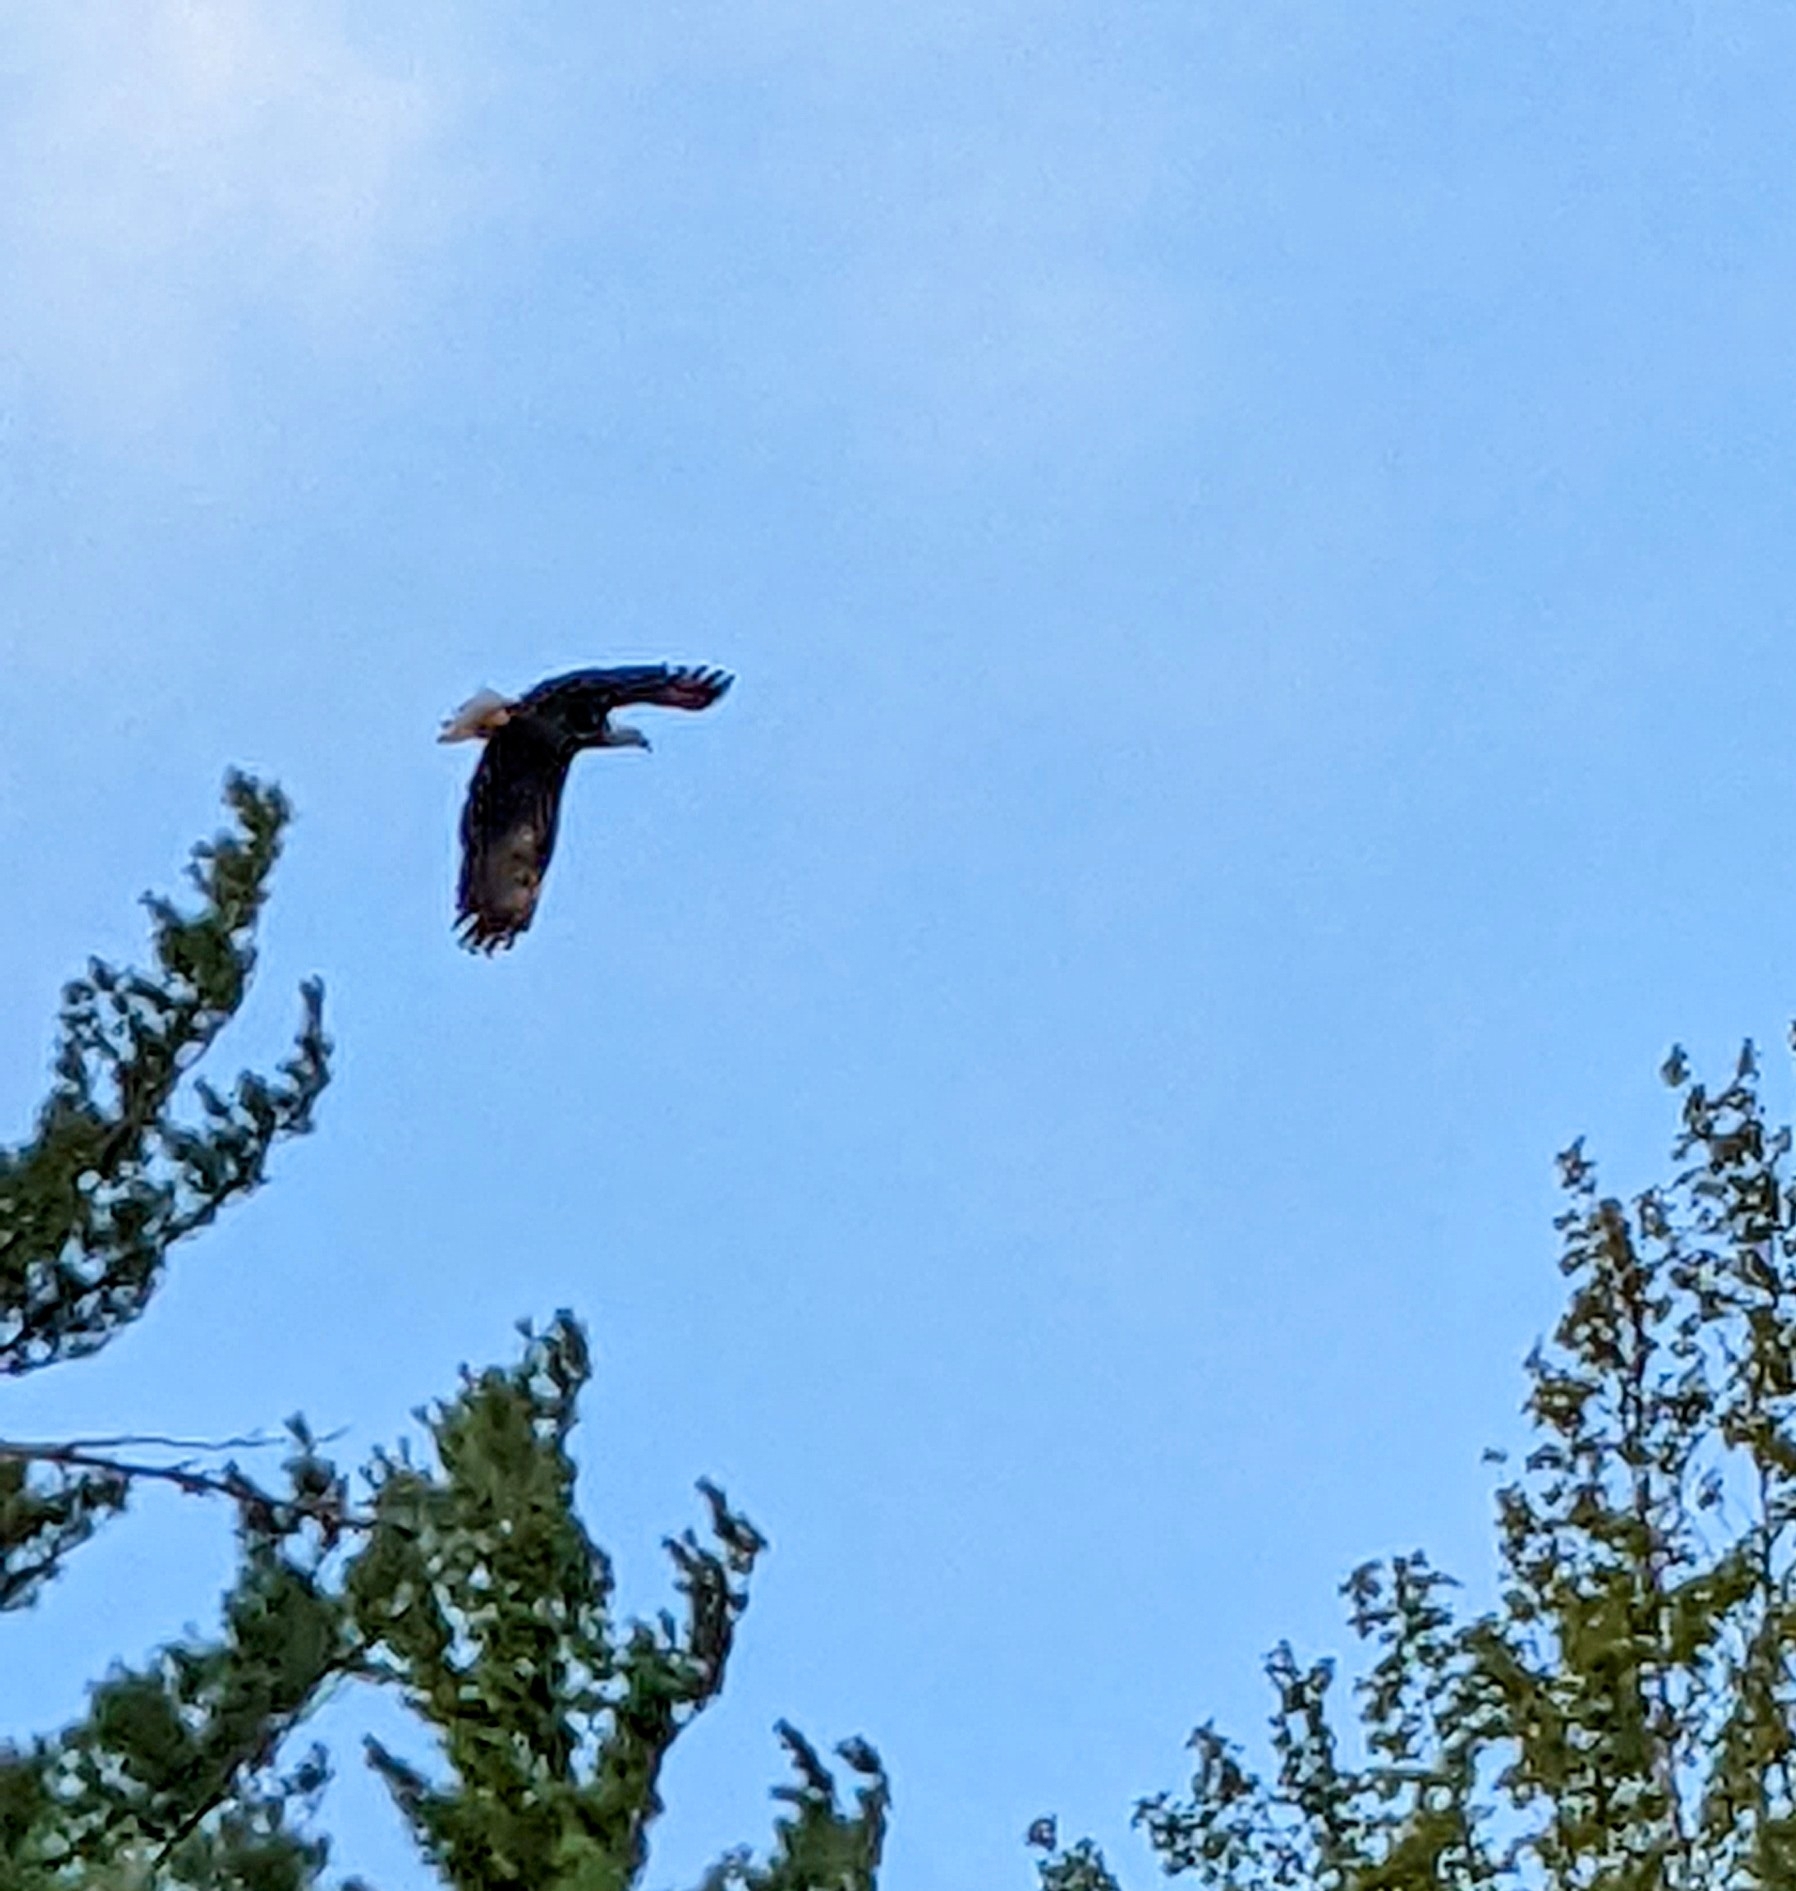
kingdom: Animalia
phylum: Chordata
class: Aves
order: Accipitriformes
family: Accipitridae
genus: Haliaeetus
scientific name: Haliaeetus leucocephalus
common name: Bald eagle
